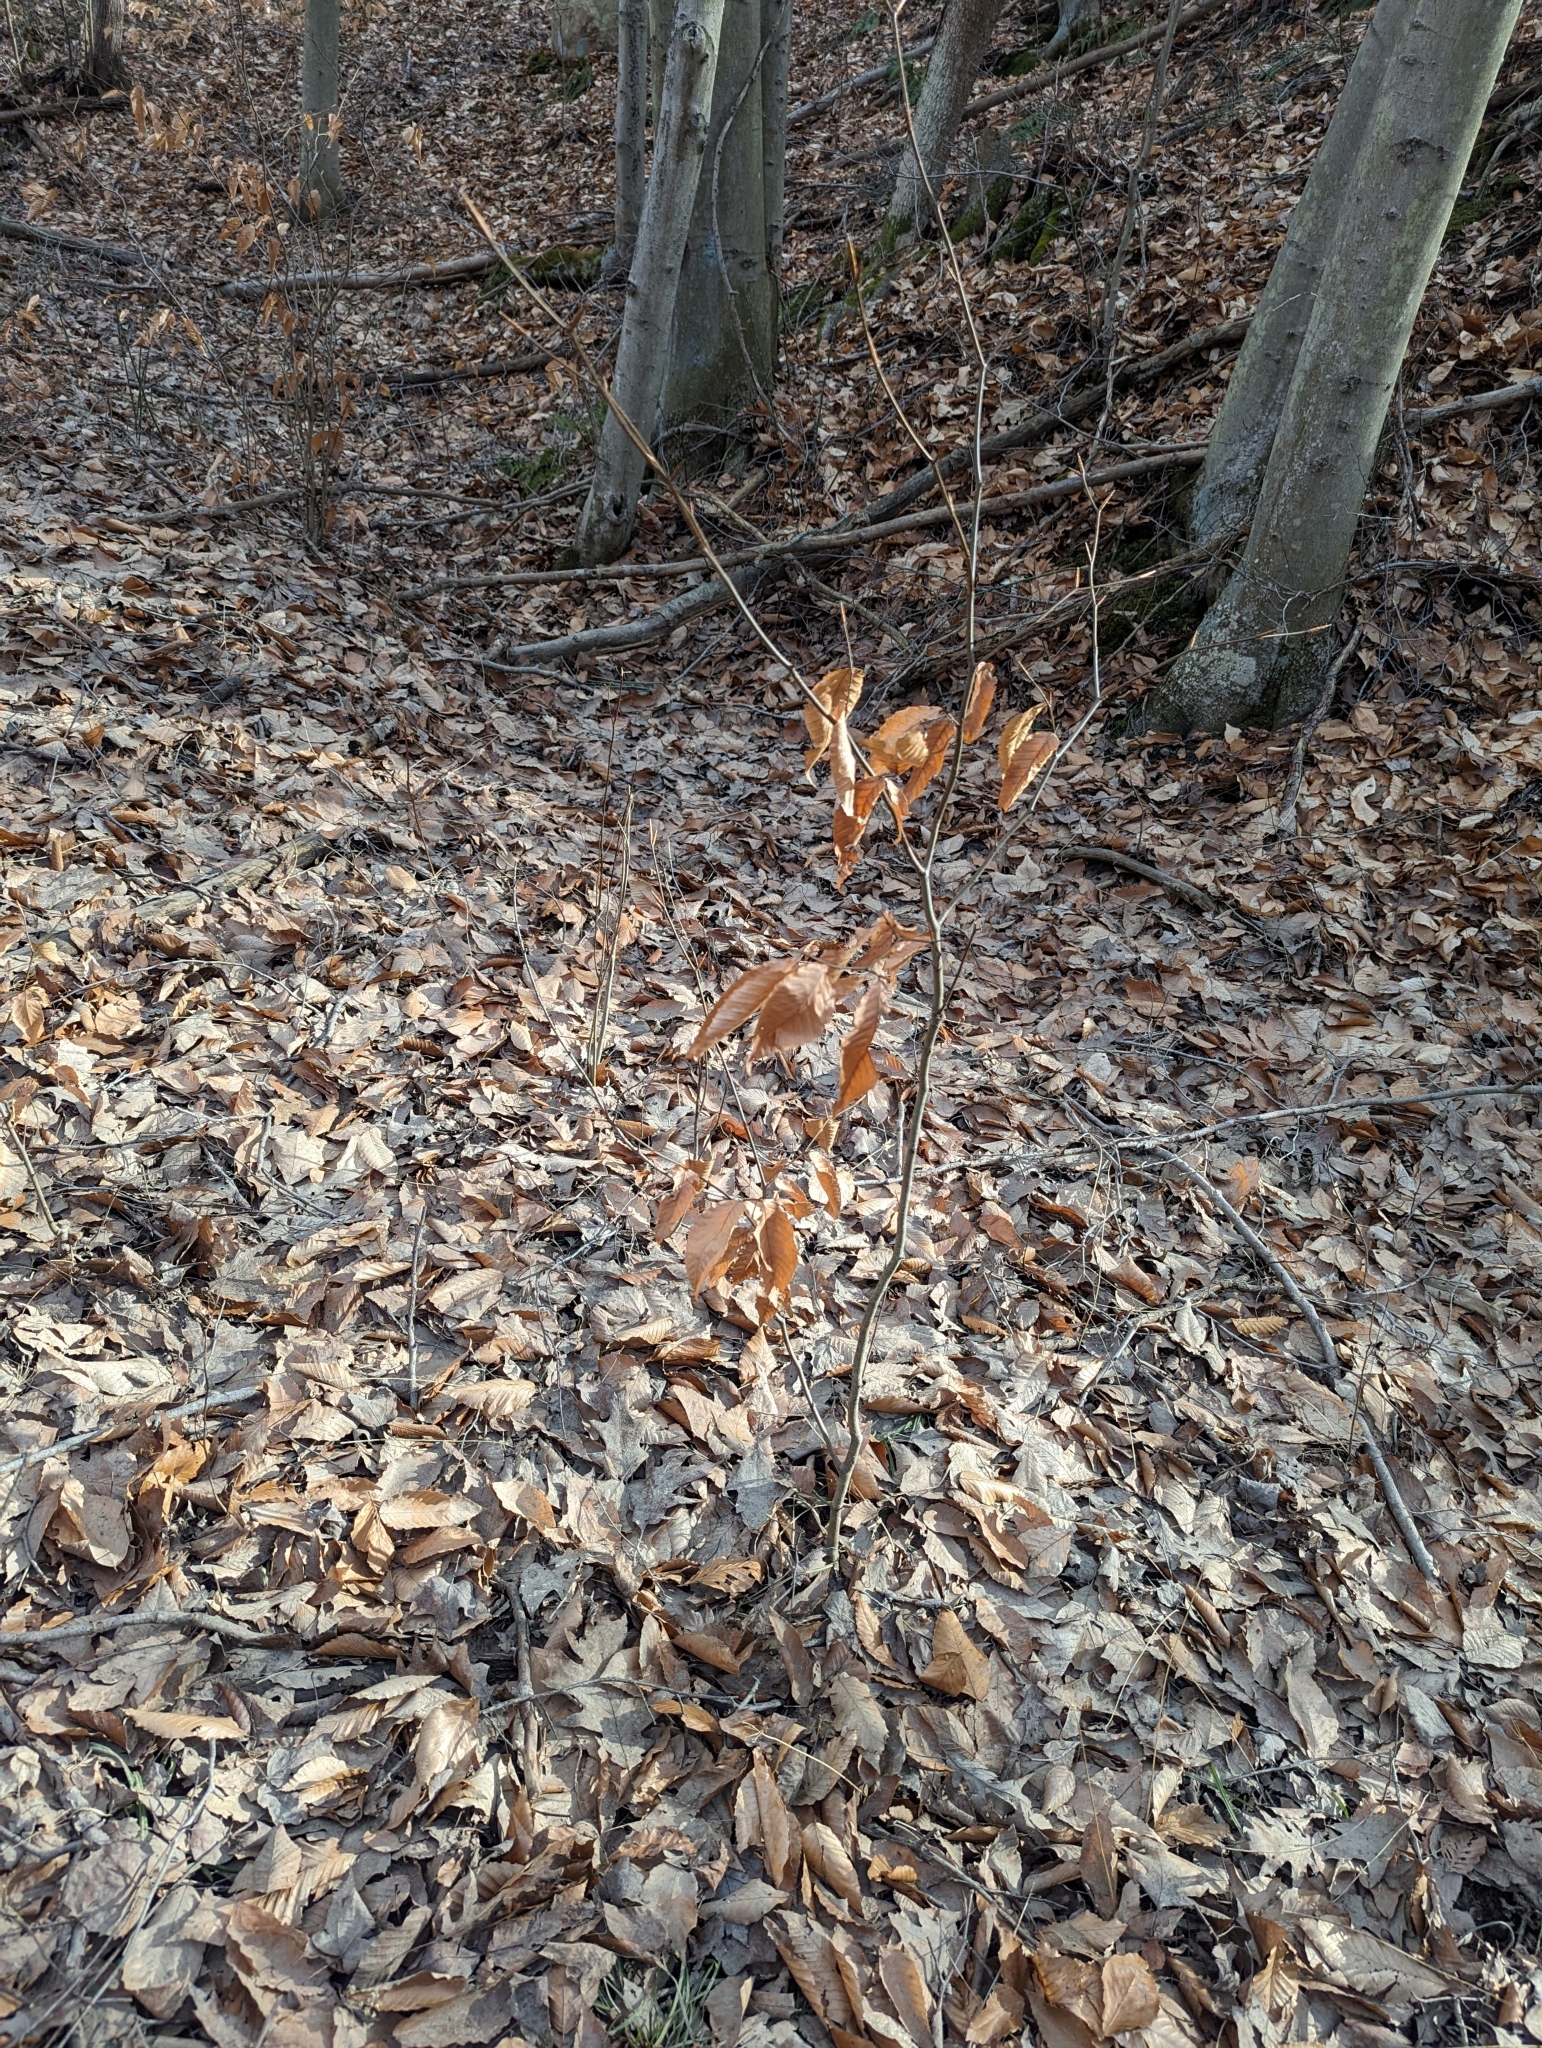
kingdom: Plantae
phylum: Tracheophyta
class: Magnoliopsida
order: Fagales
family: Fagaceae
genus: Fagus
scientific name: Fagus grandifolia
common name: American beech
